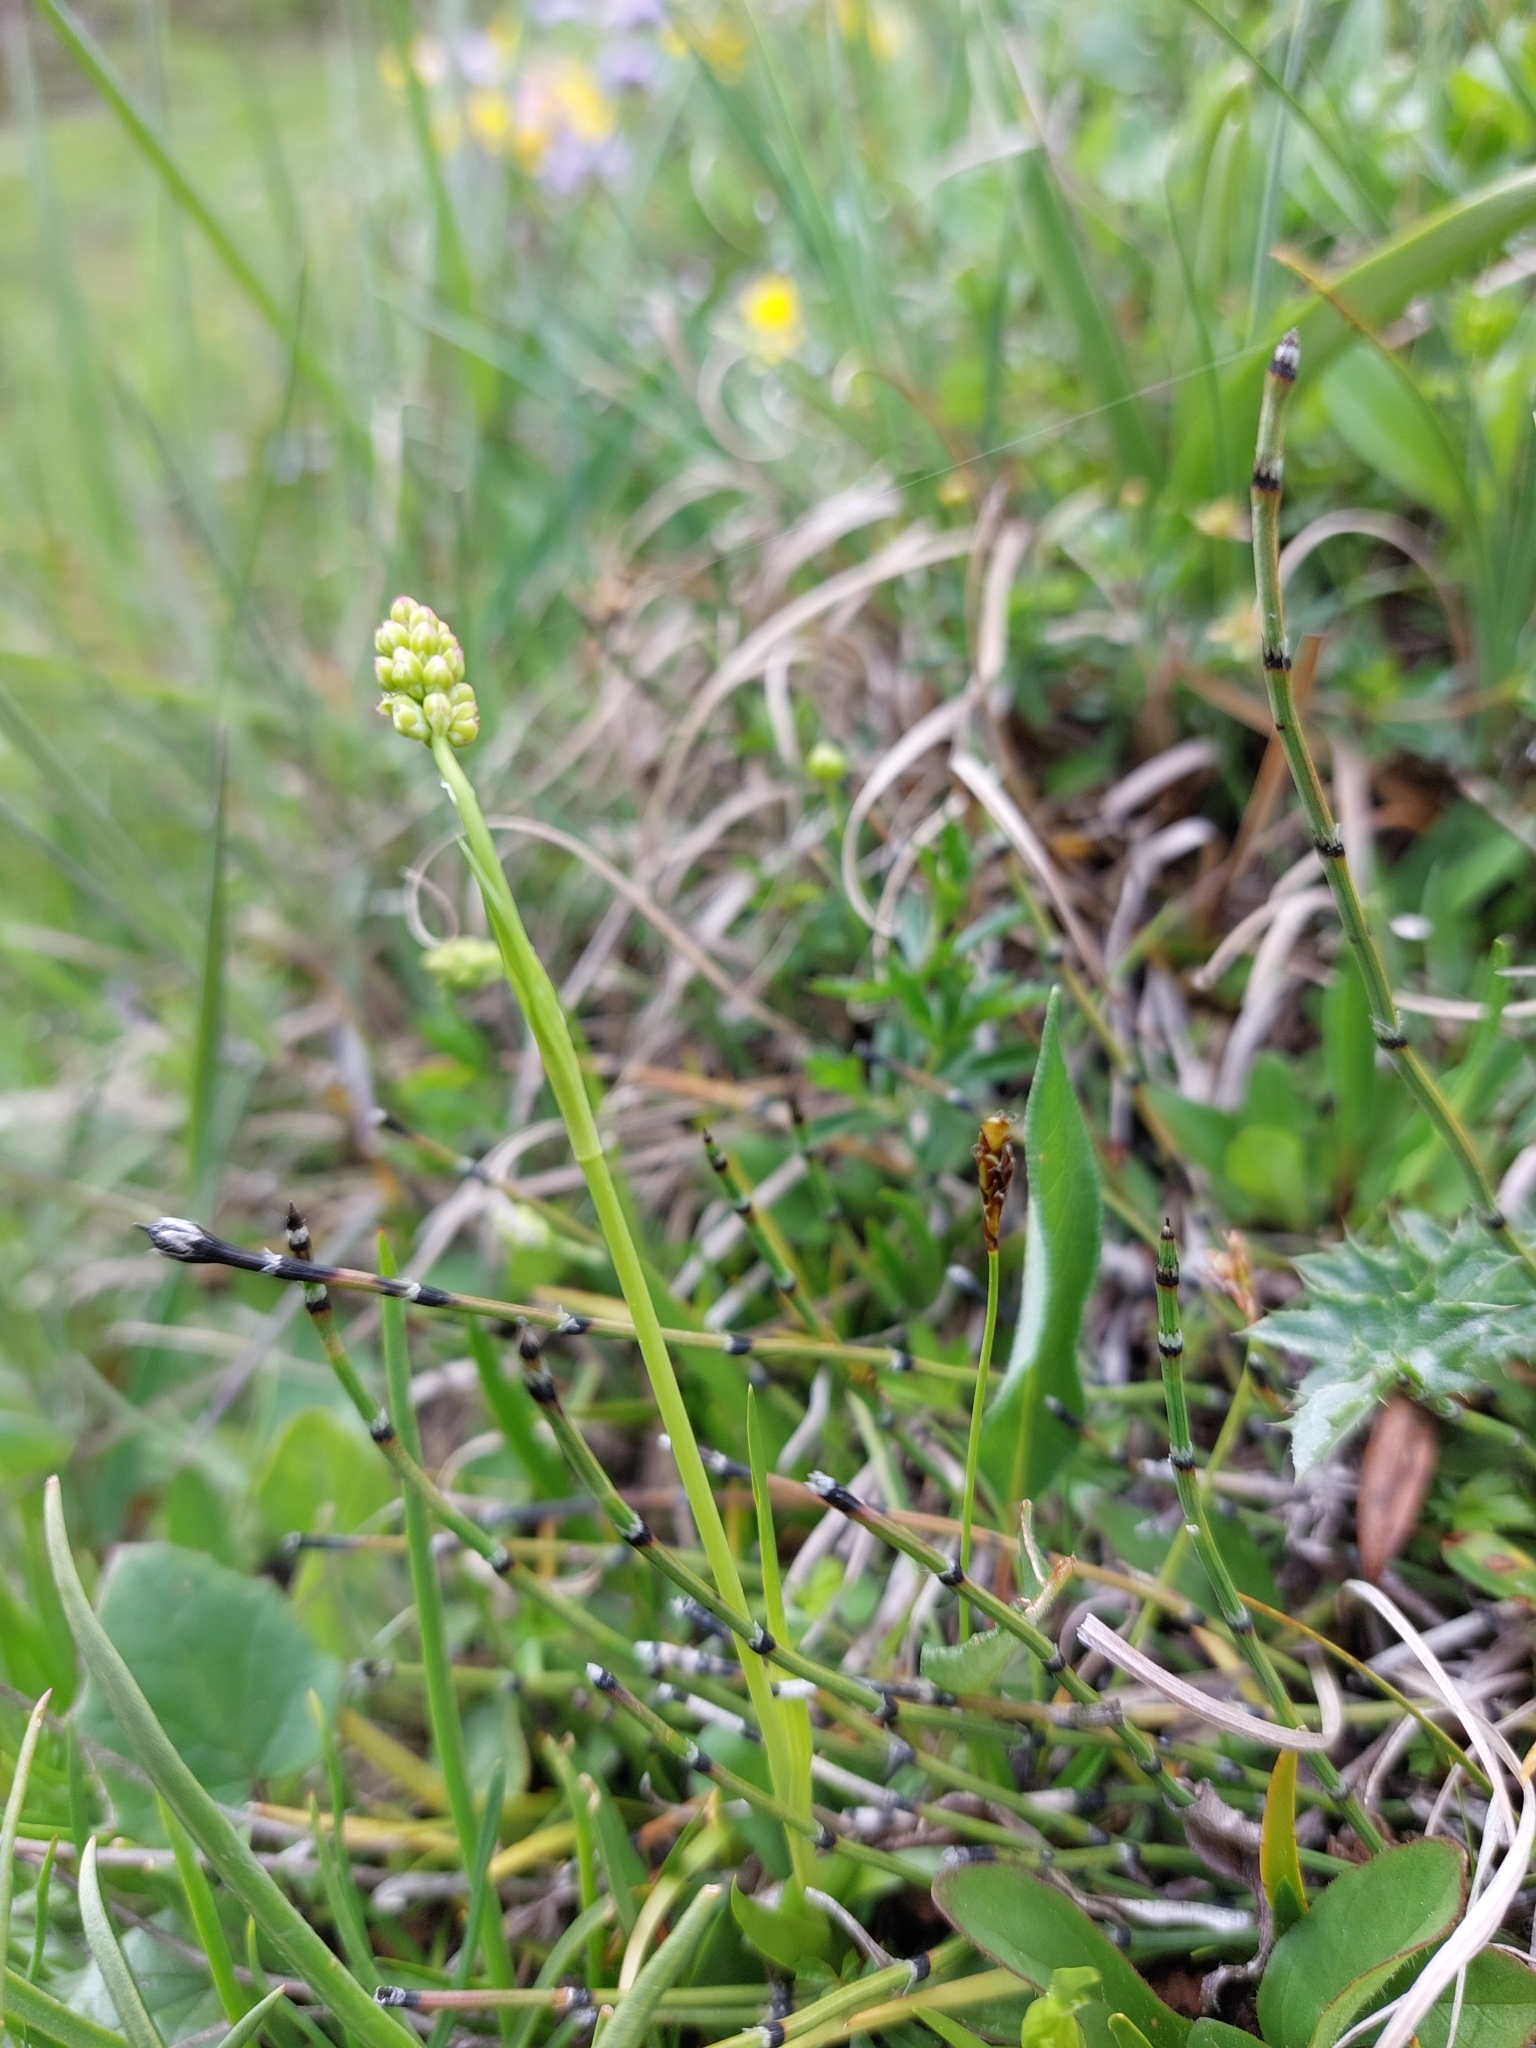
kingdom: Plantae
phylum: Tracheophyta
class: Liliopsida
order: Alismatales
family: Tofieldiaceae
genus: Tofieldia
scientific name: Tofieldia calyculata
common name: German-asphodel
